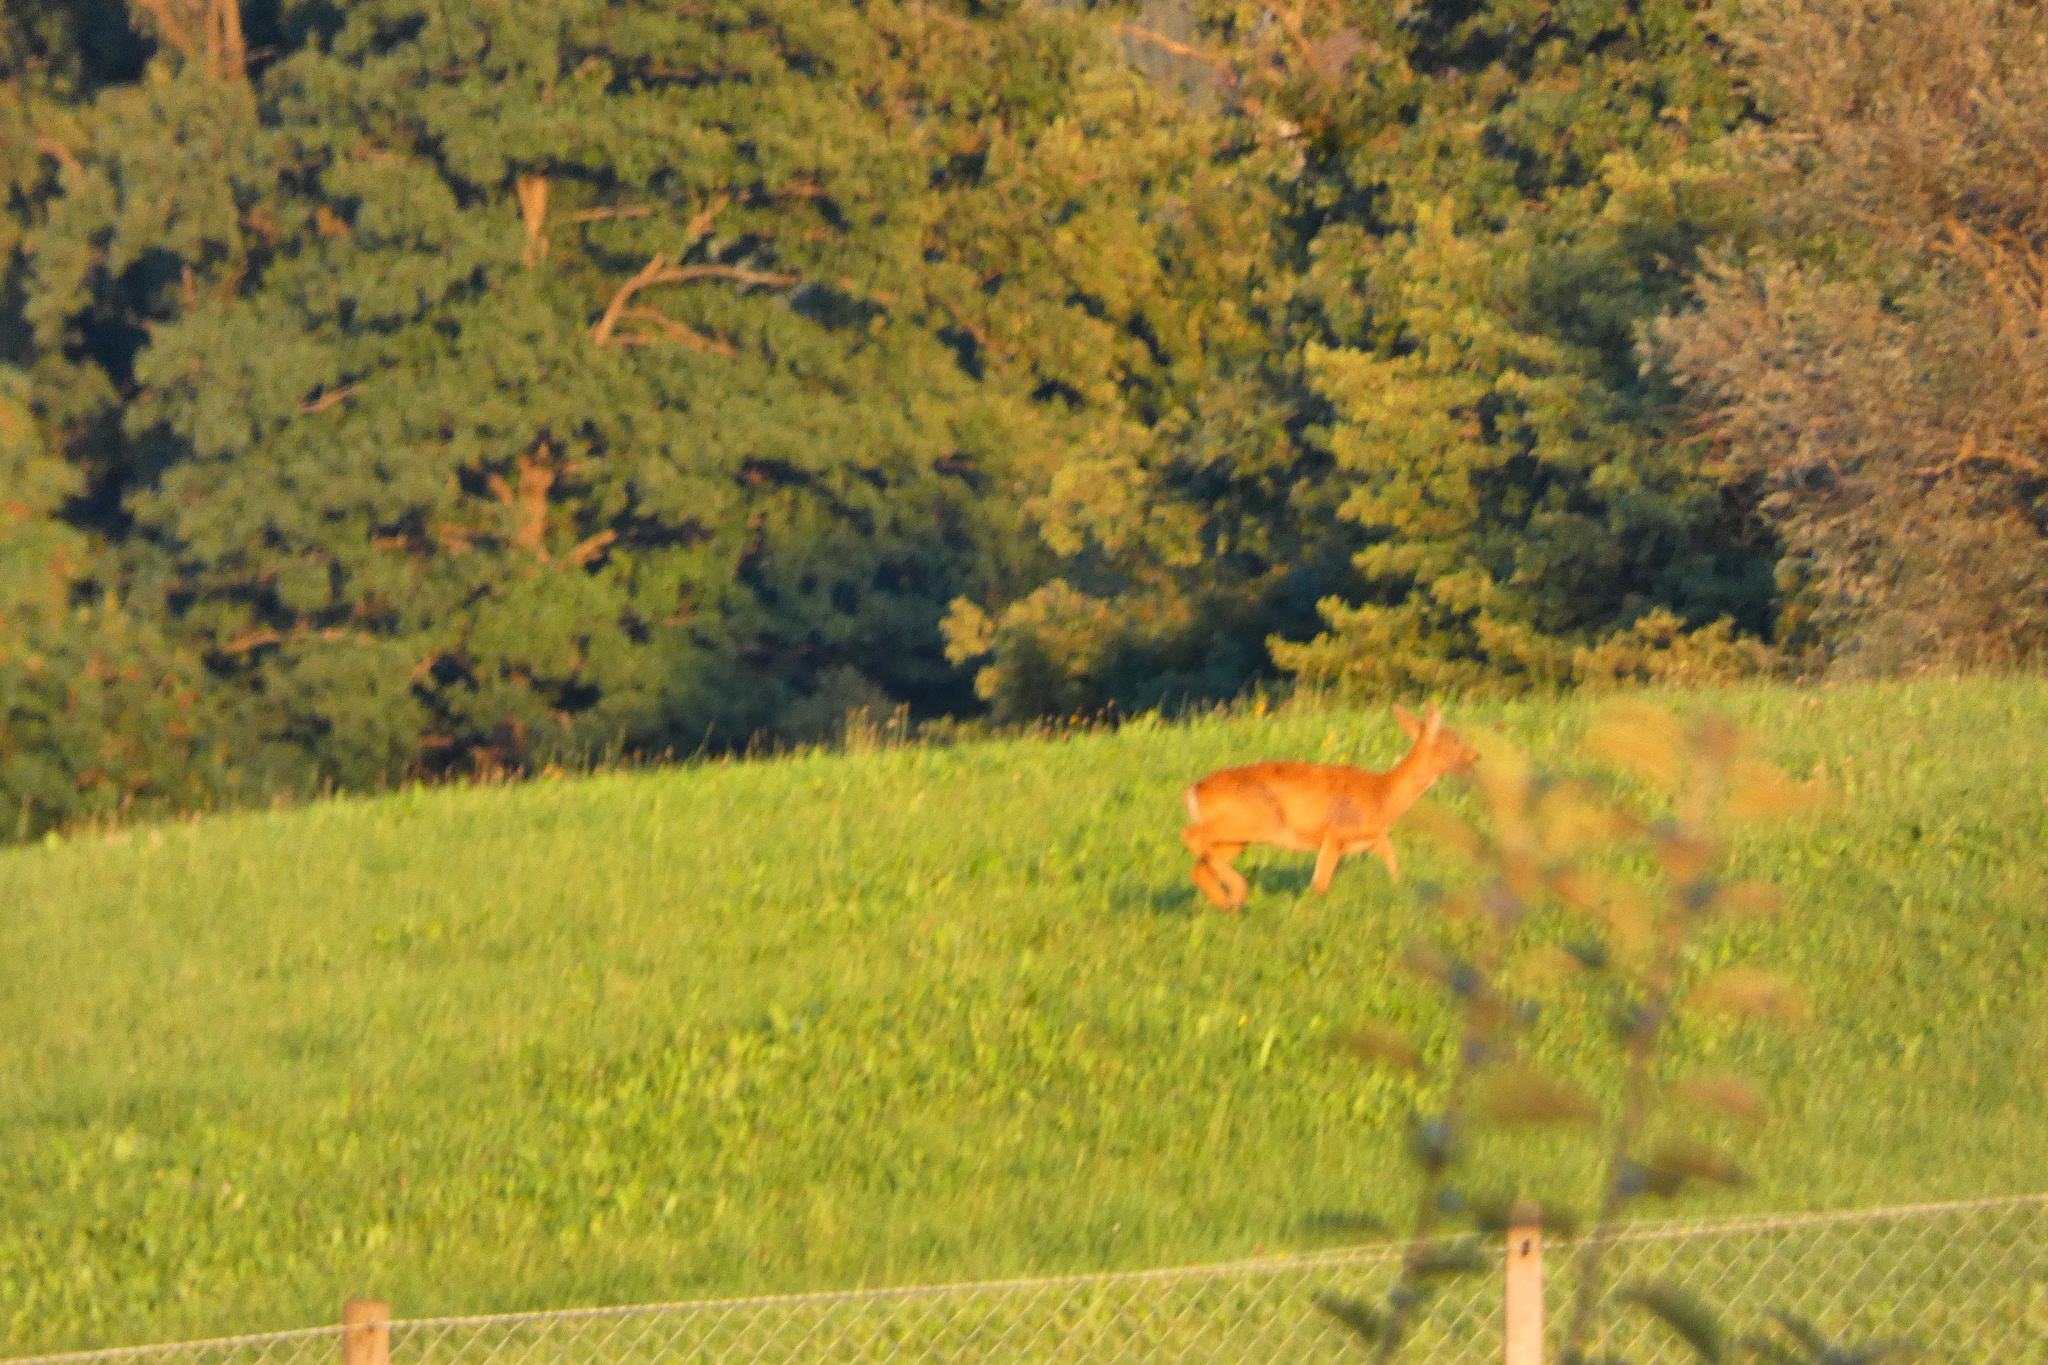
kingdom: Animalia
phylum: Chordata
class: Mammalia
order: Artiodactyla
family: Cervidae
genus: Capreolus
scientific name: Capreolus capreolus
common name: Western roe deer
